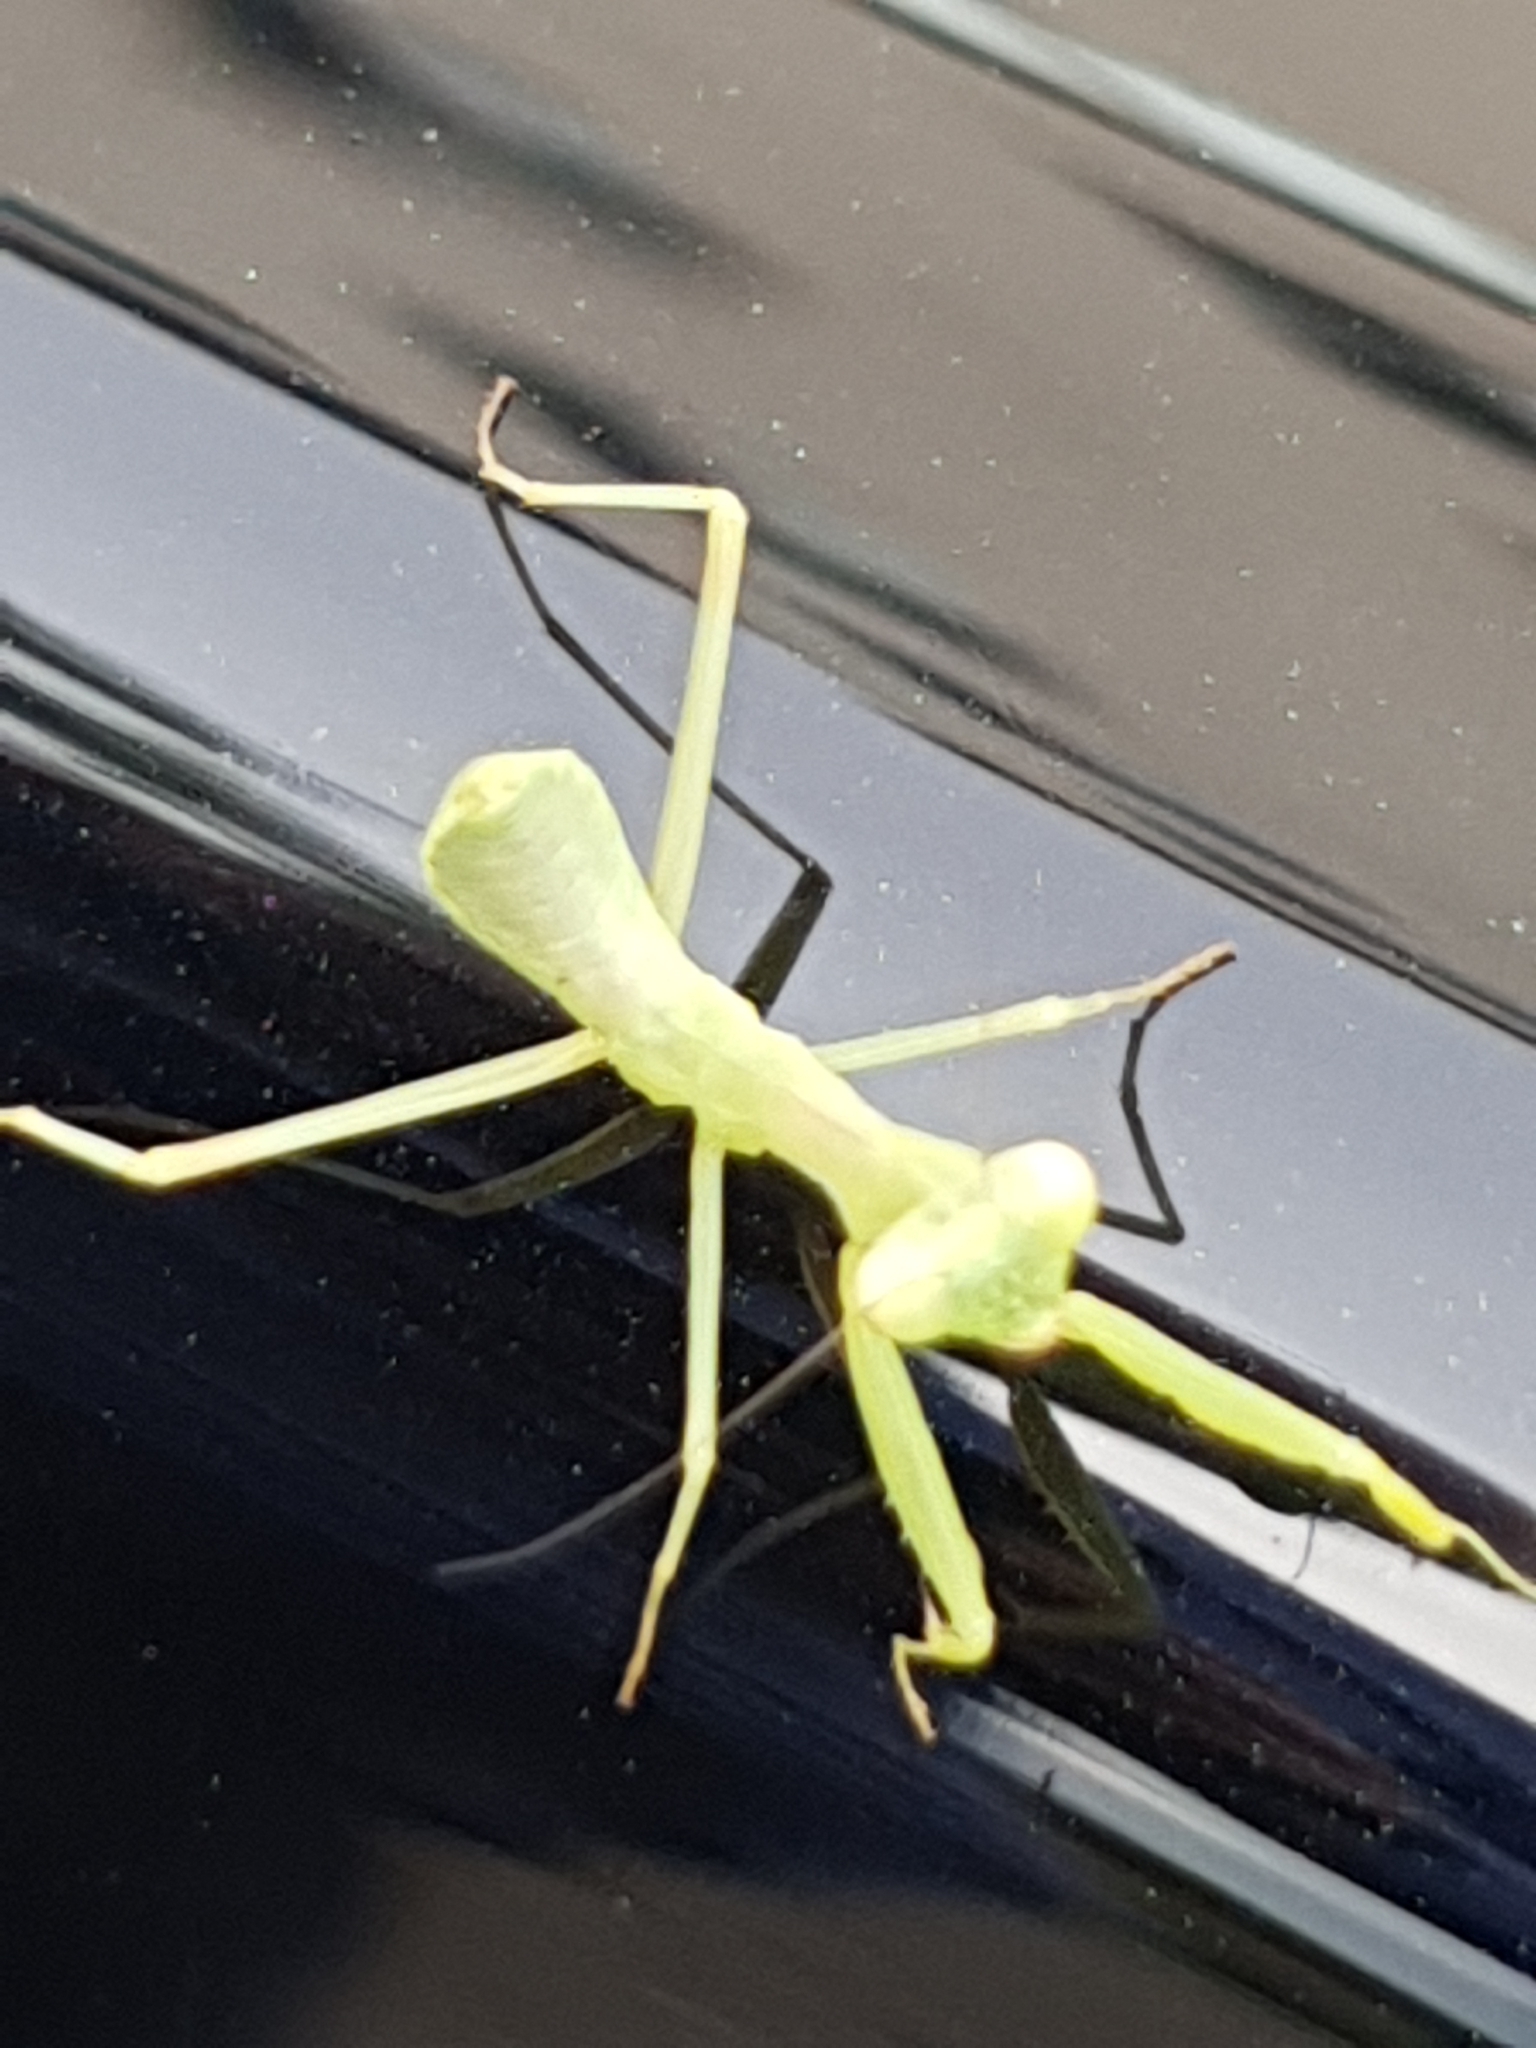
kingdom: Animalia
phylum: Arthropoda
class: Insecta
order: Mantodea
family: Mantidae
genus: Hierodula
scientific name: Hierodula transcaucasica
